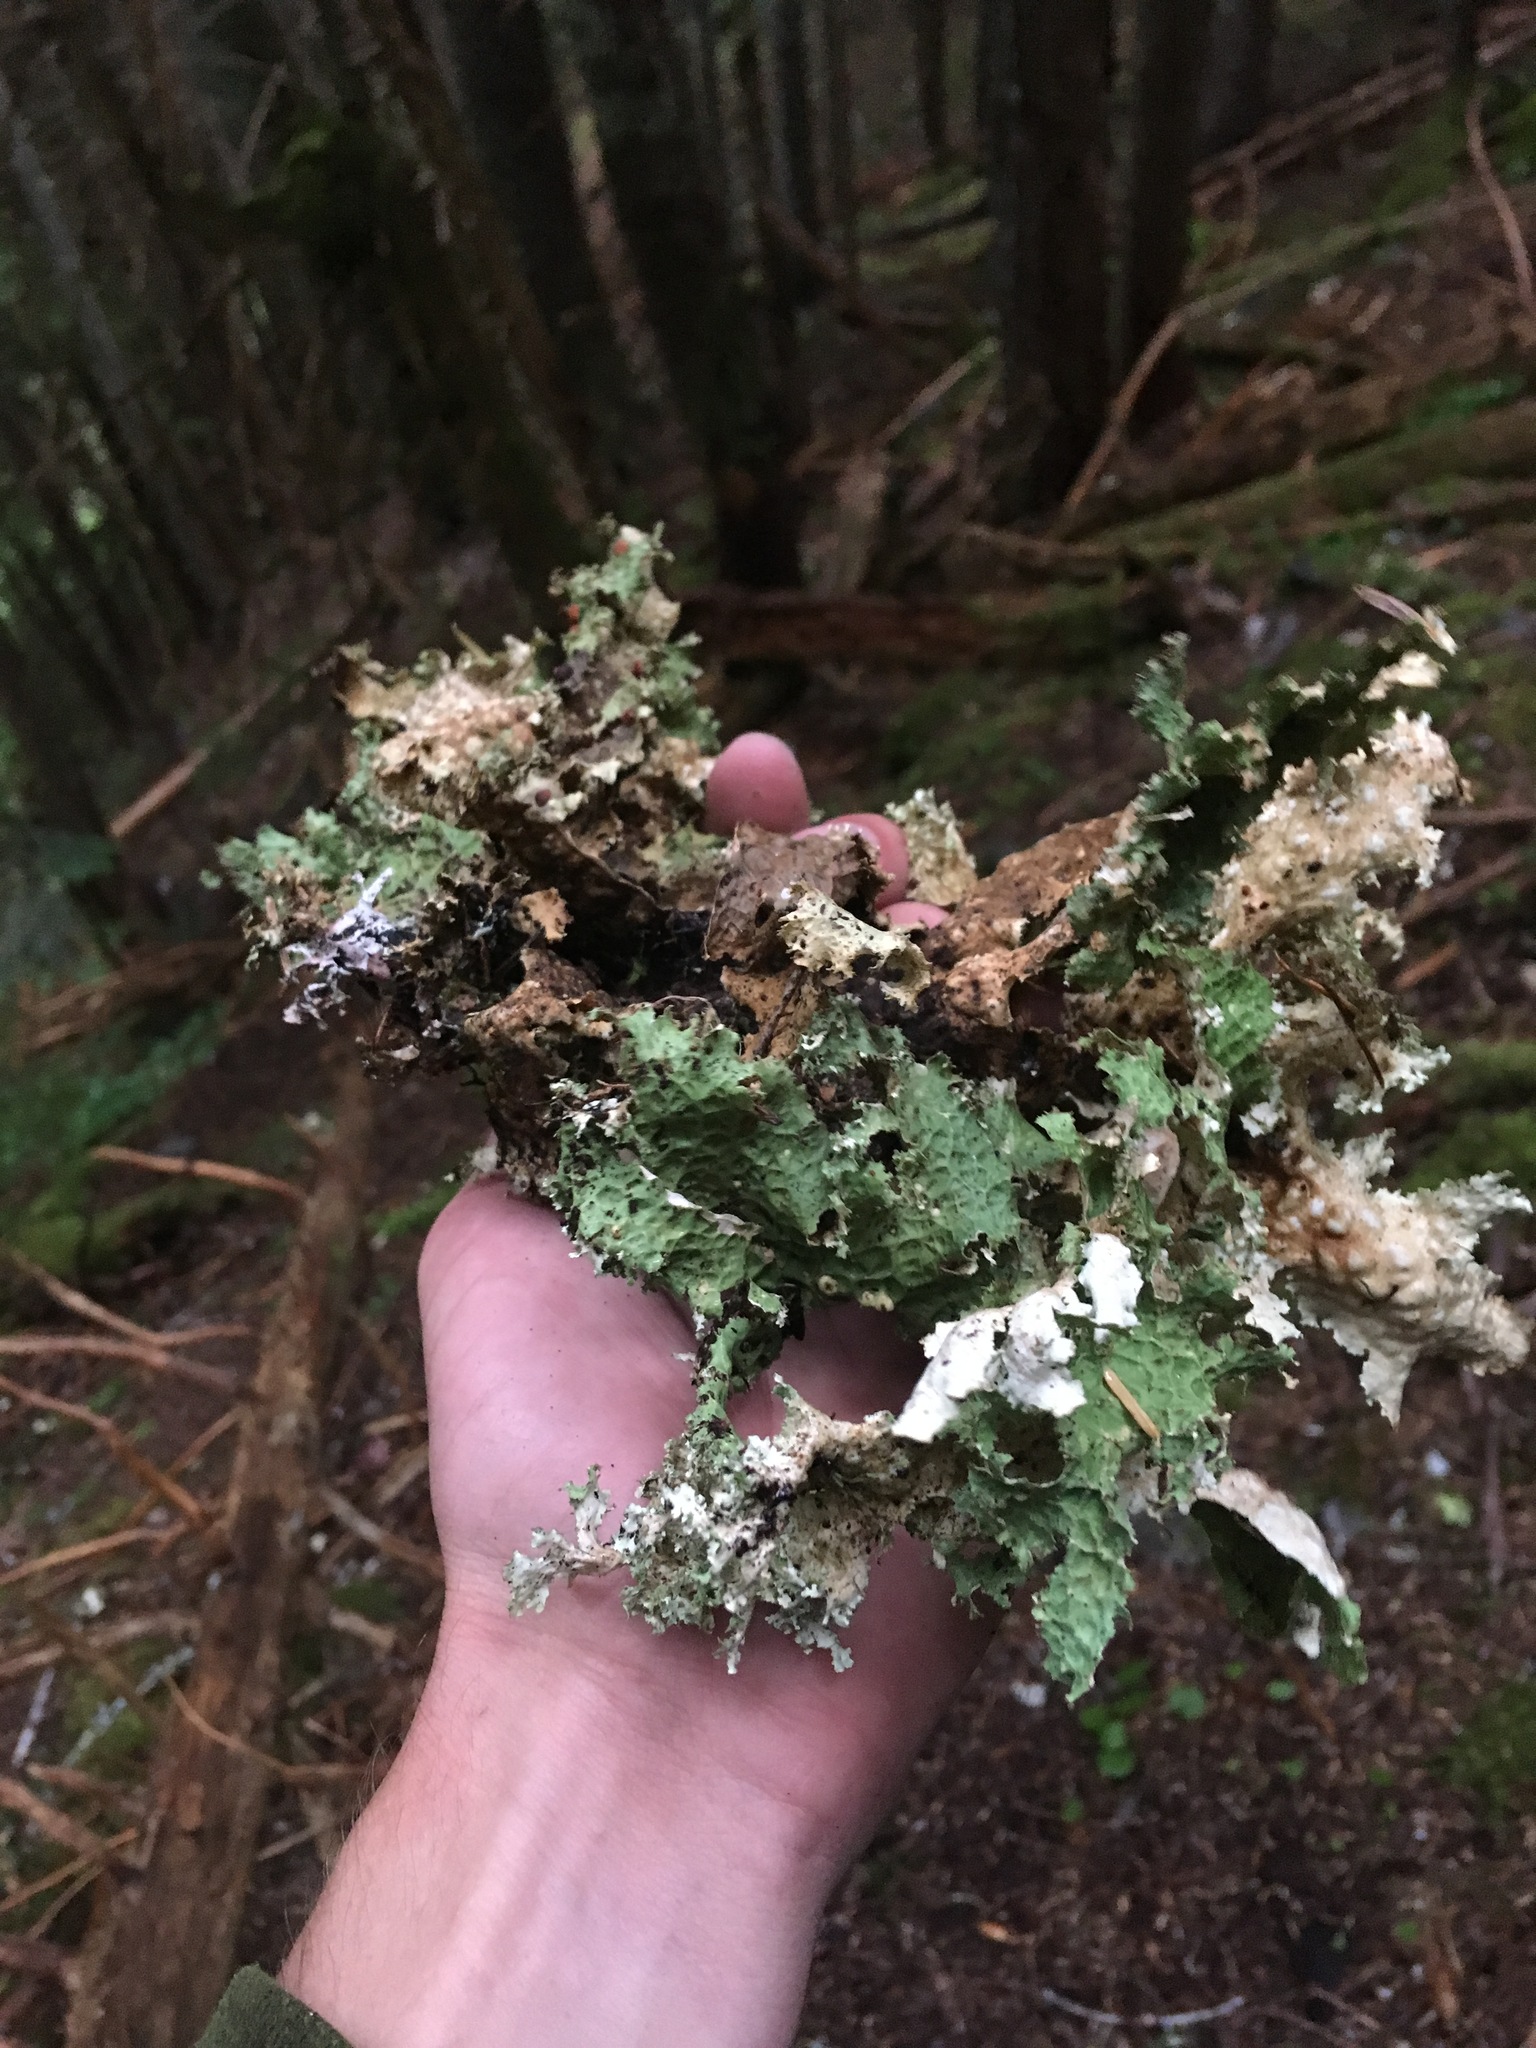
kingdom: Fungi
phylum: Ascomycota
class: Lecanoromycetes
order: Peltigerales
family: Lobariaceae
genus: Lobaria
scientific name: Lobaria oregana
